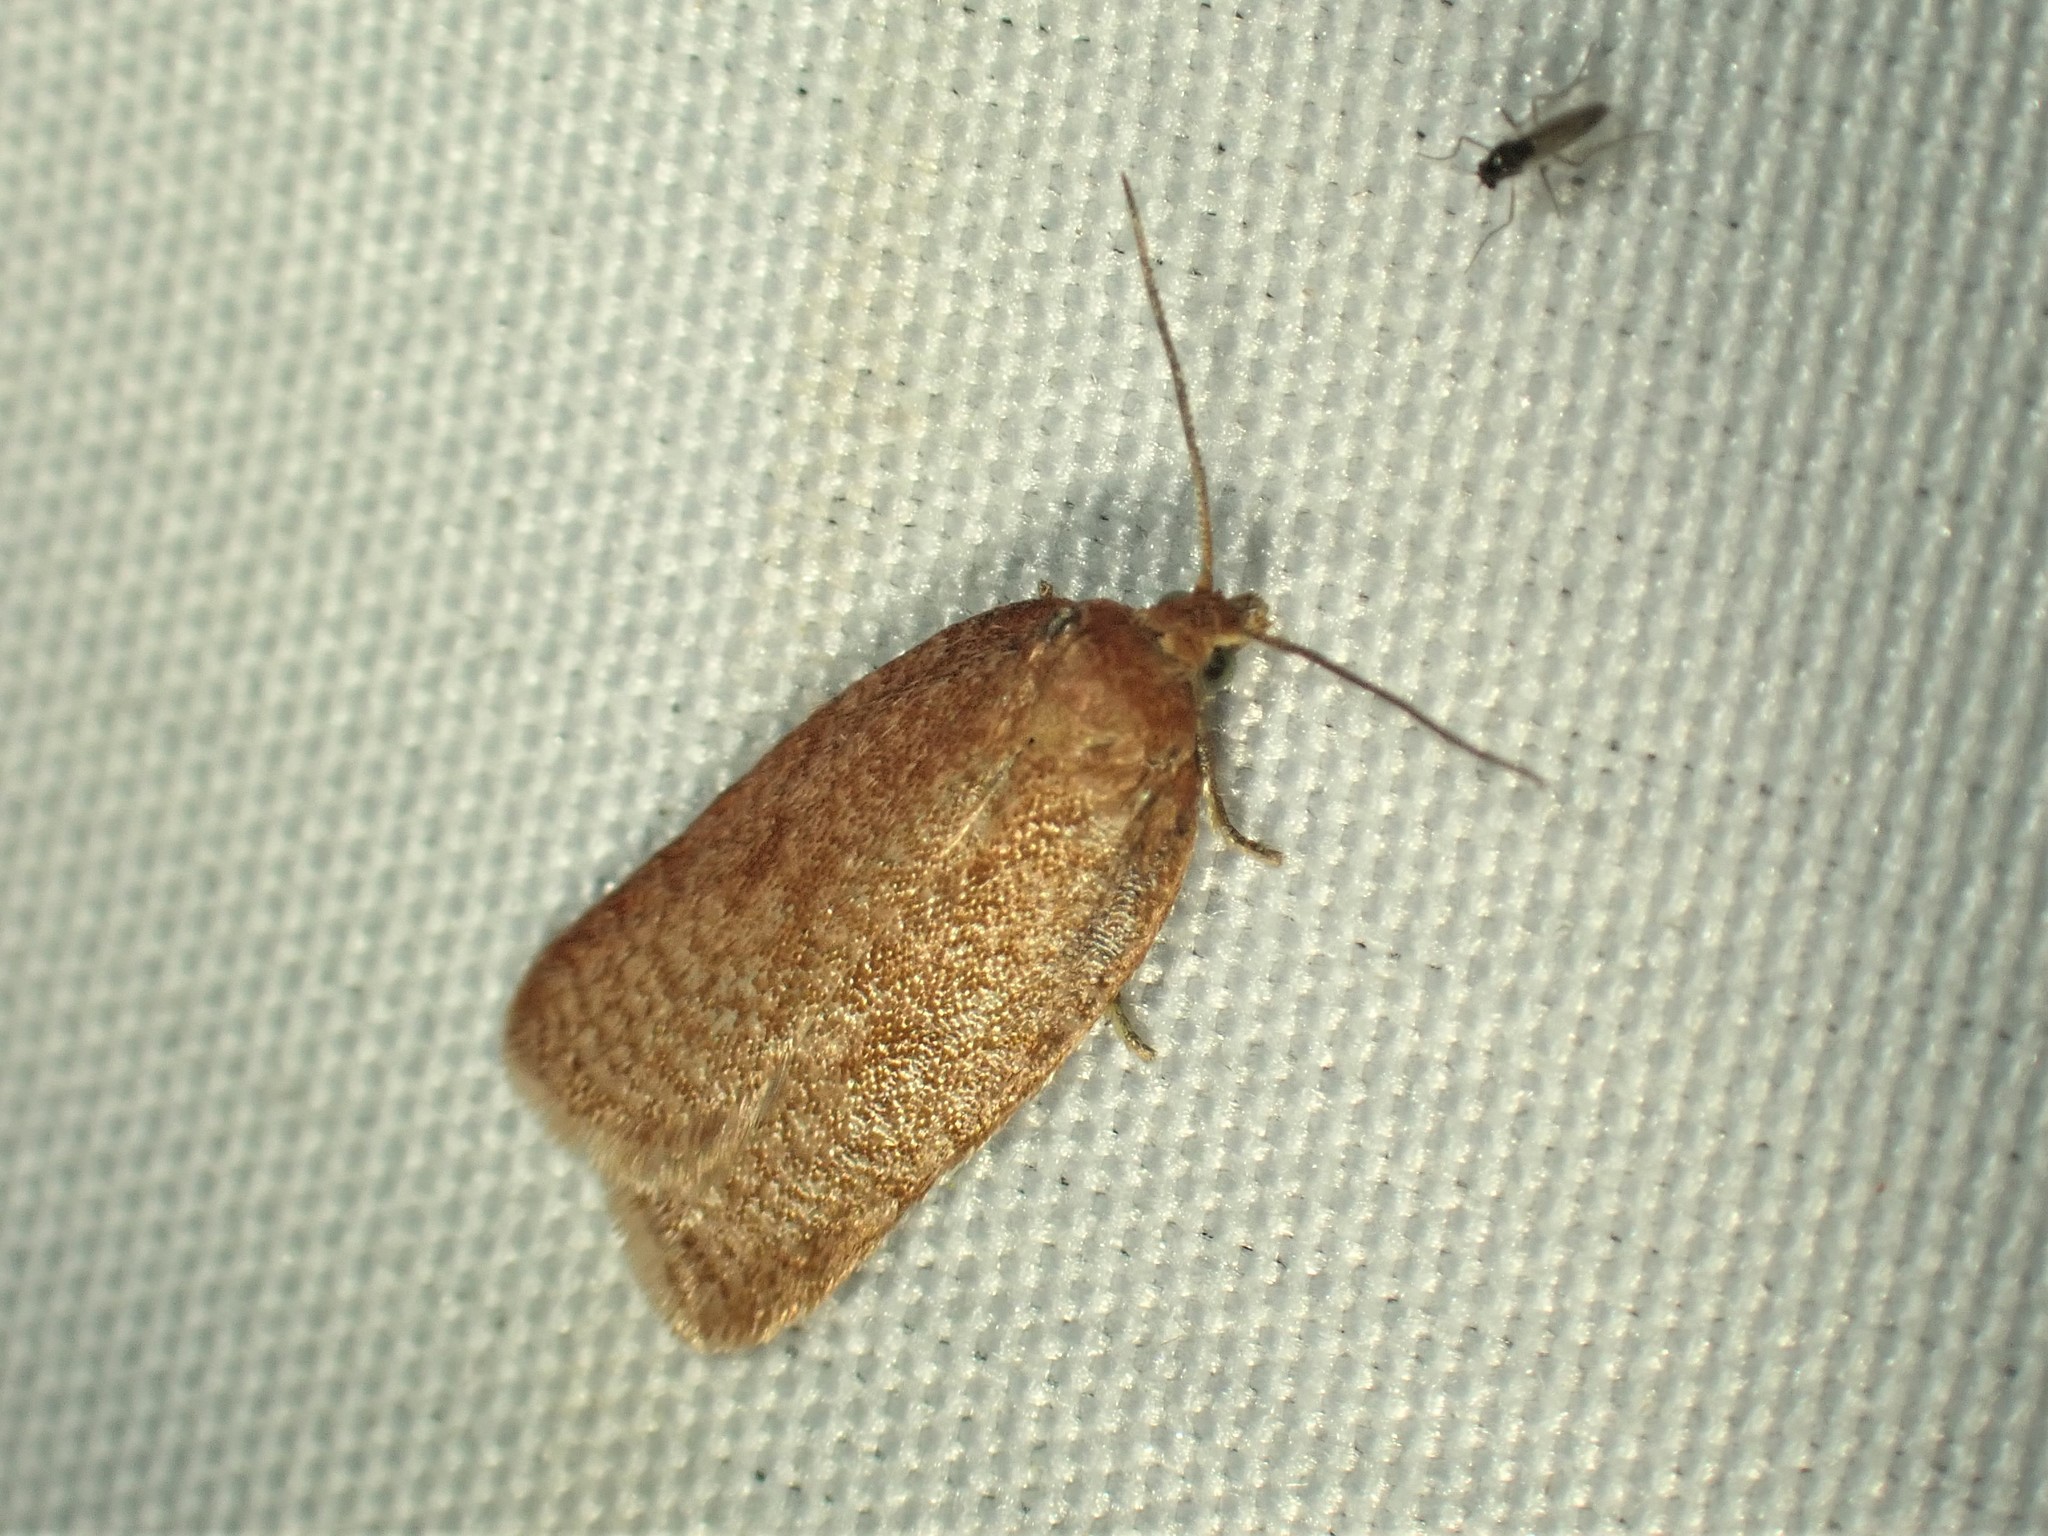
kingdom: Animalia
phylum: Arthropoda
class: Insecta
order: Lepidoptera
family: Tortricidae
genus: Acleris
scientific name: Acleris kearfottana
